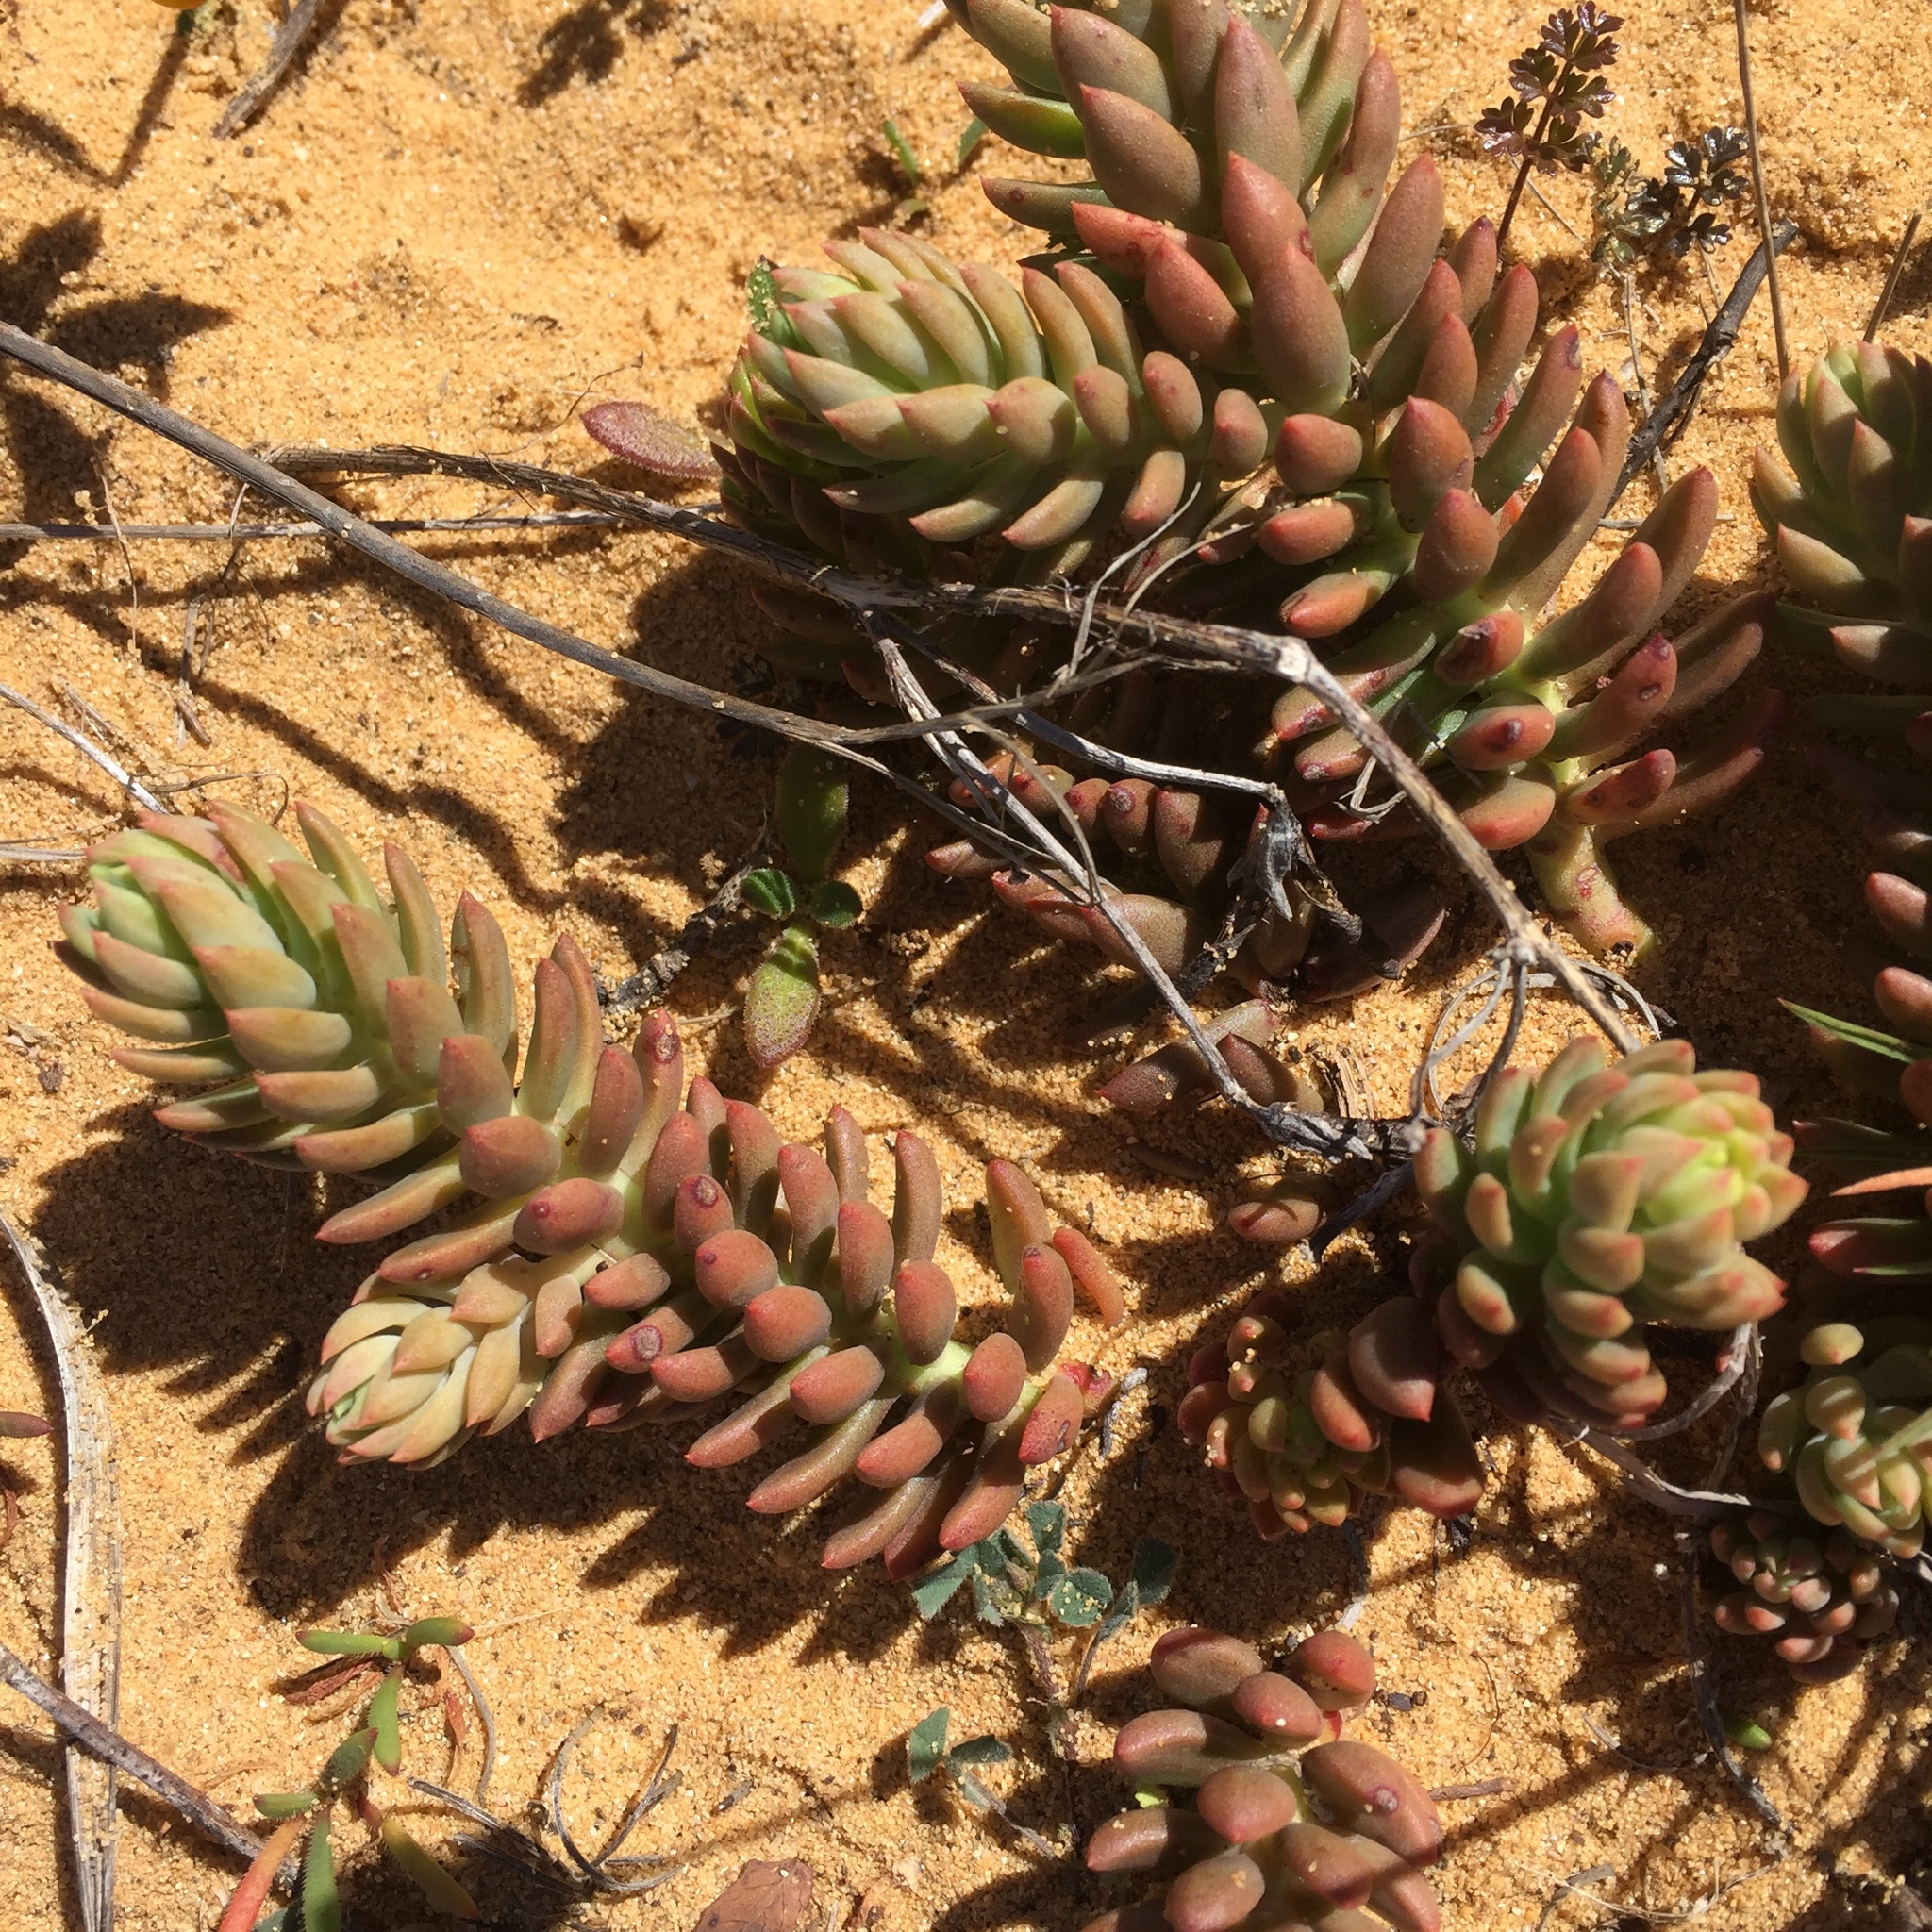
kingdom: Plantae
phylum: Tracheophyta
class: Magnoliopsida
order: Saxifragales
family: Crassulaceae
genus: Petrosedum
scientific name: Petrosedum sediforme
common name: Pale stonecrop
